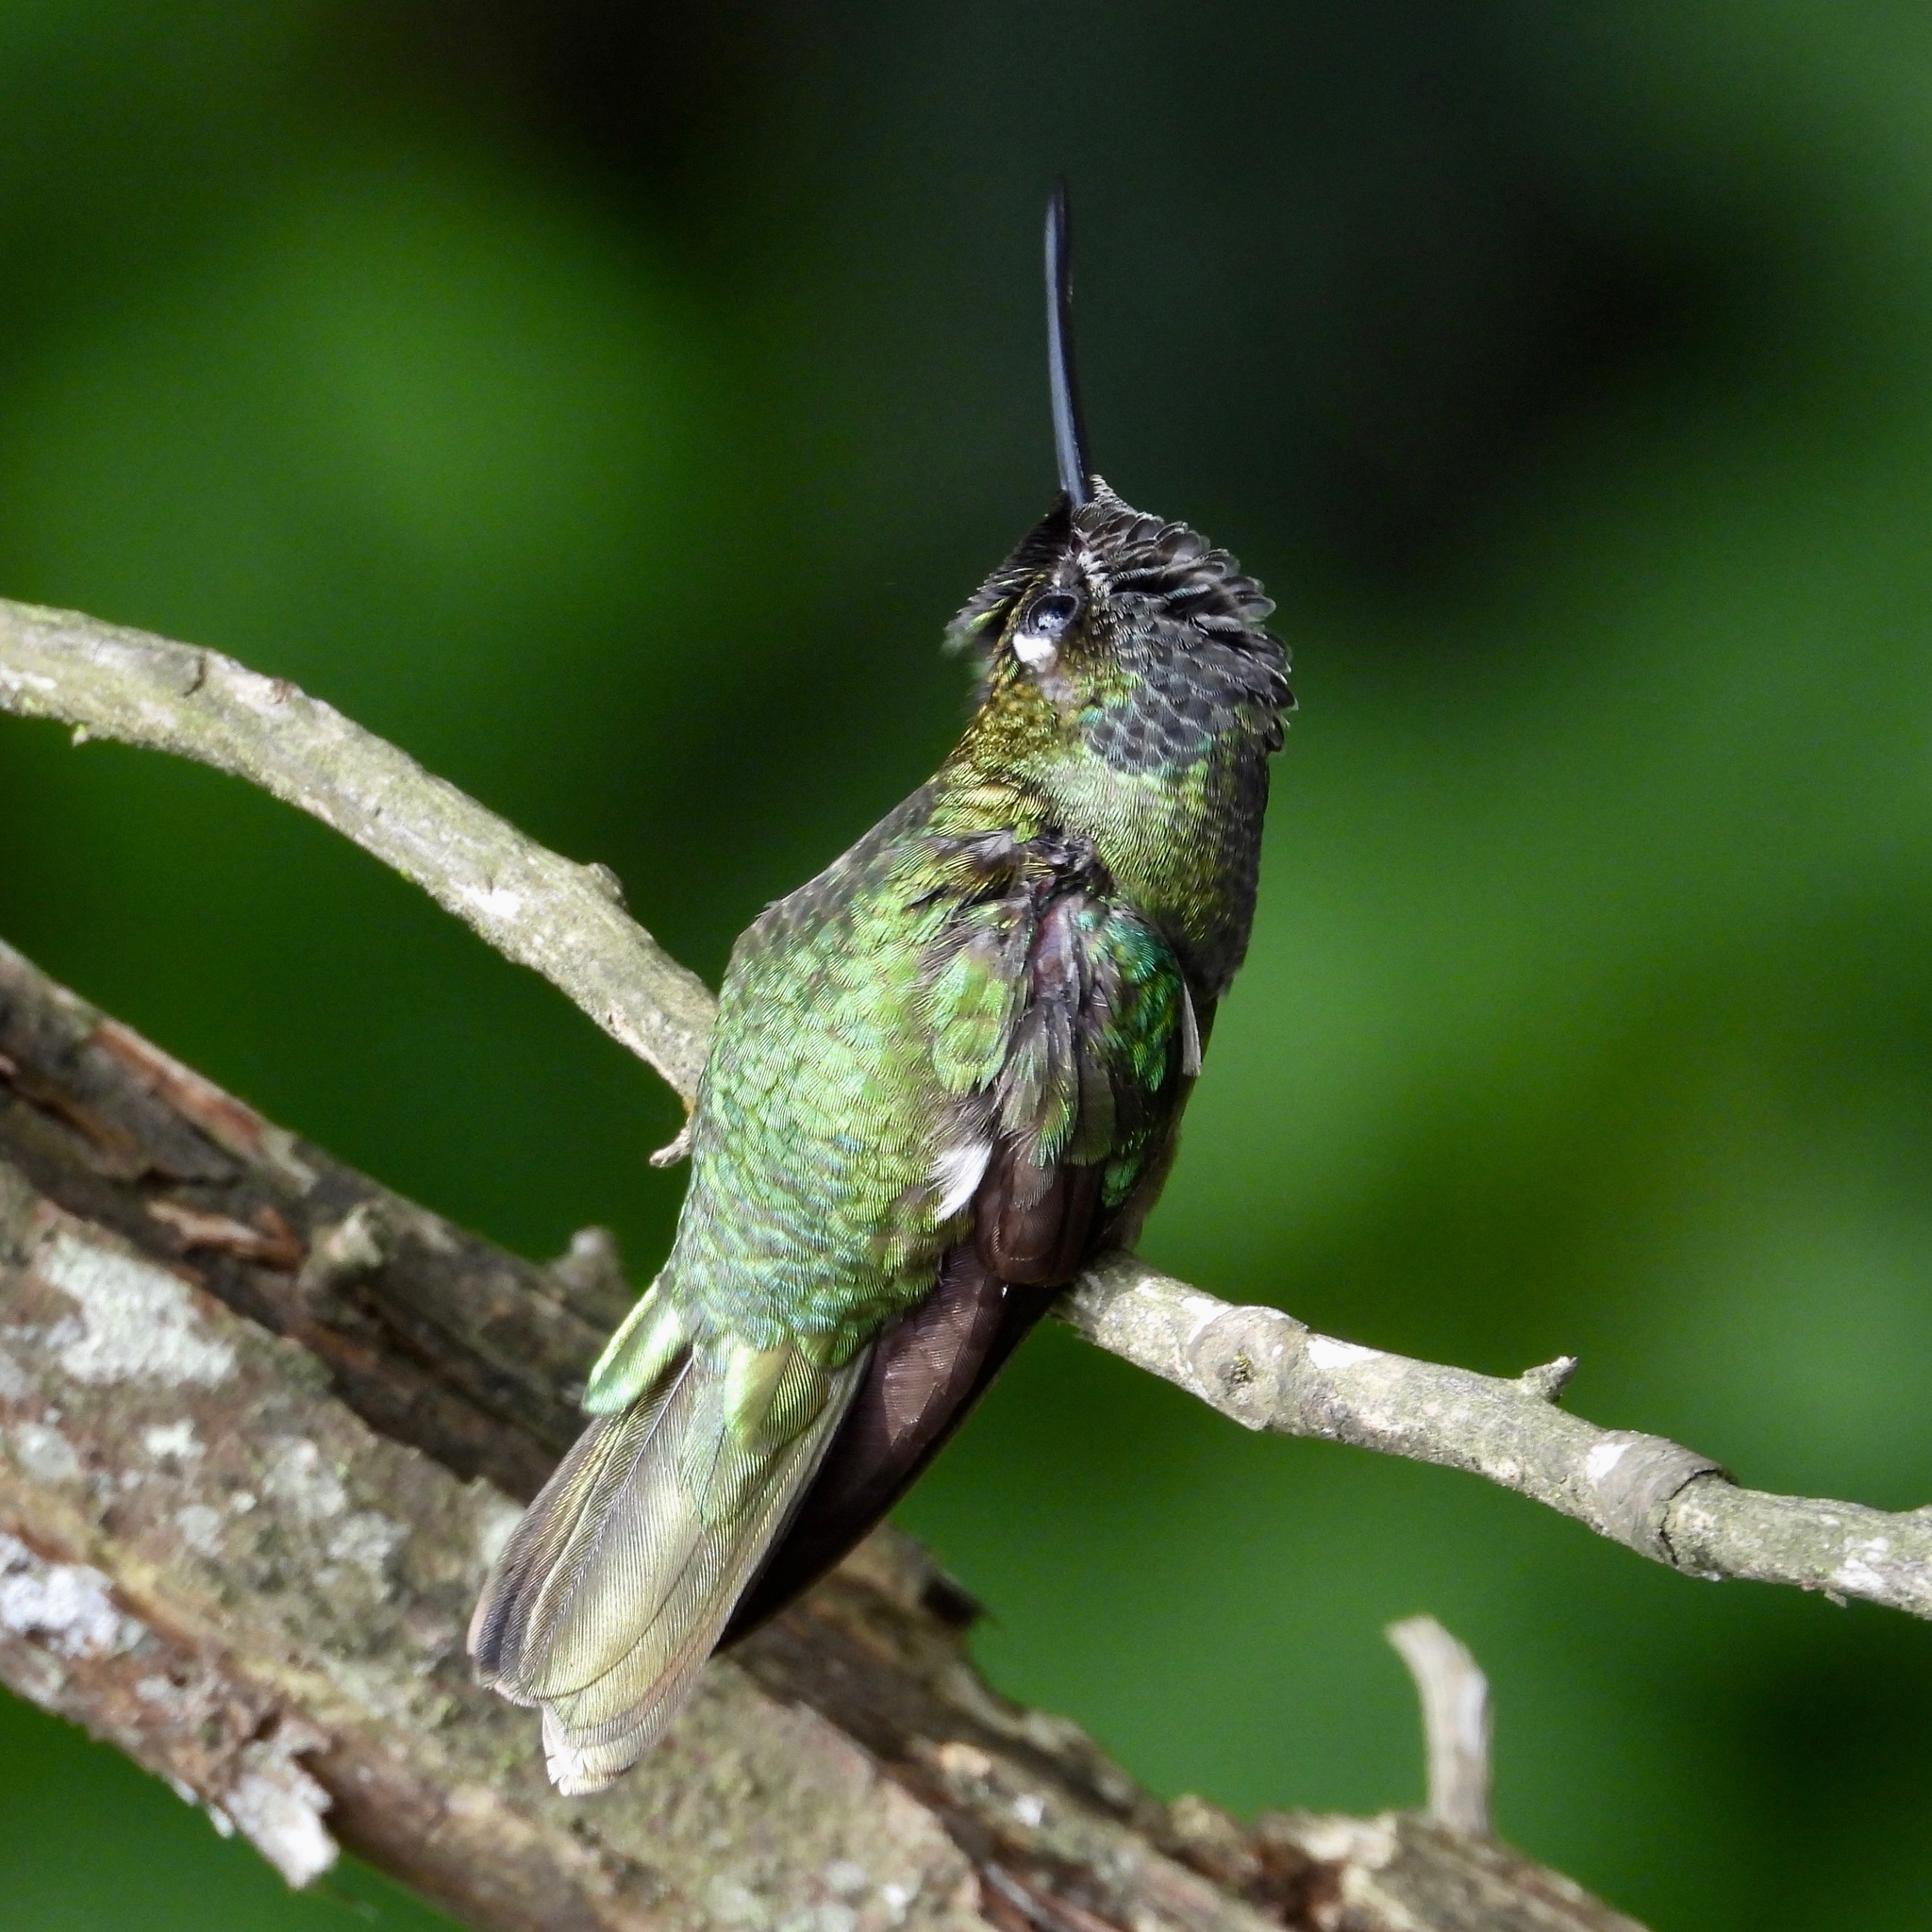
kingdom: Animalia
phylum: Chordata
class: Aves
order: Apodiformes
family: Trochilidae
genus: Eugenes
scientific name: Eugenes fulgens
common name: Magnificent hummingbird
